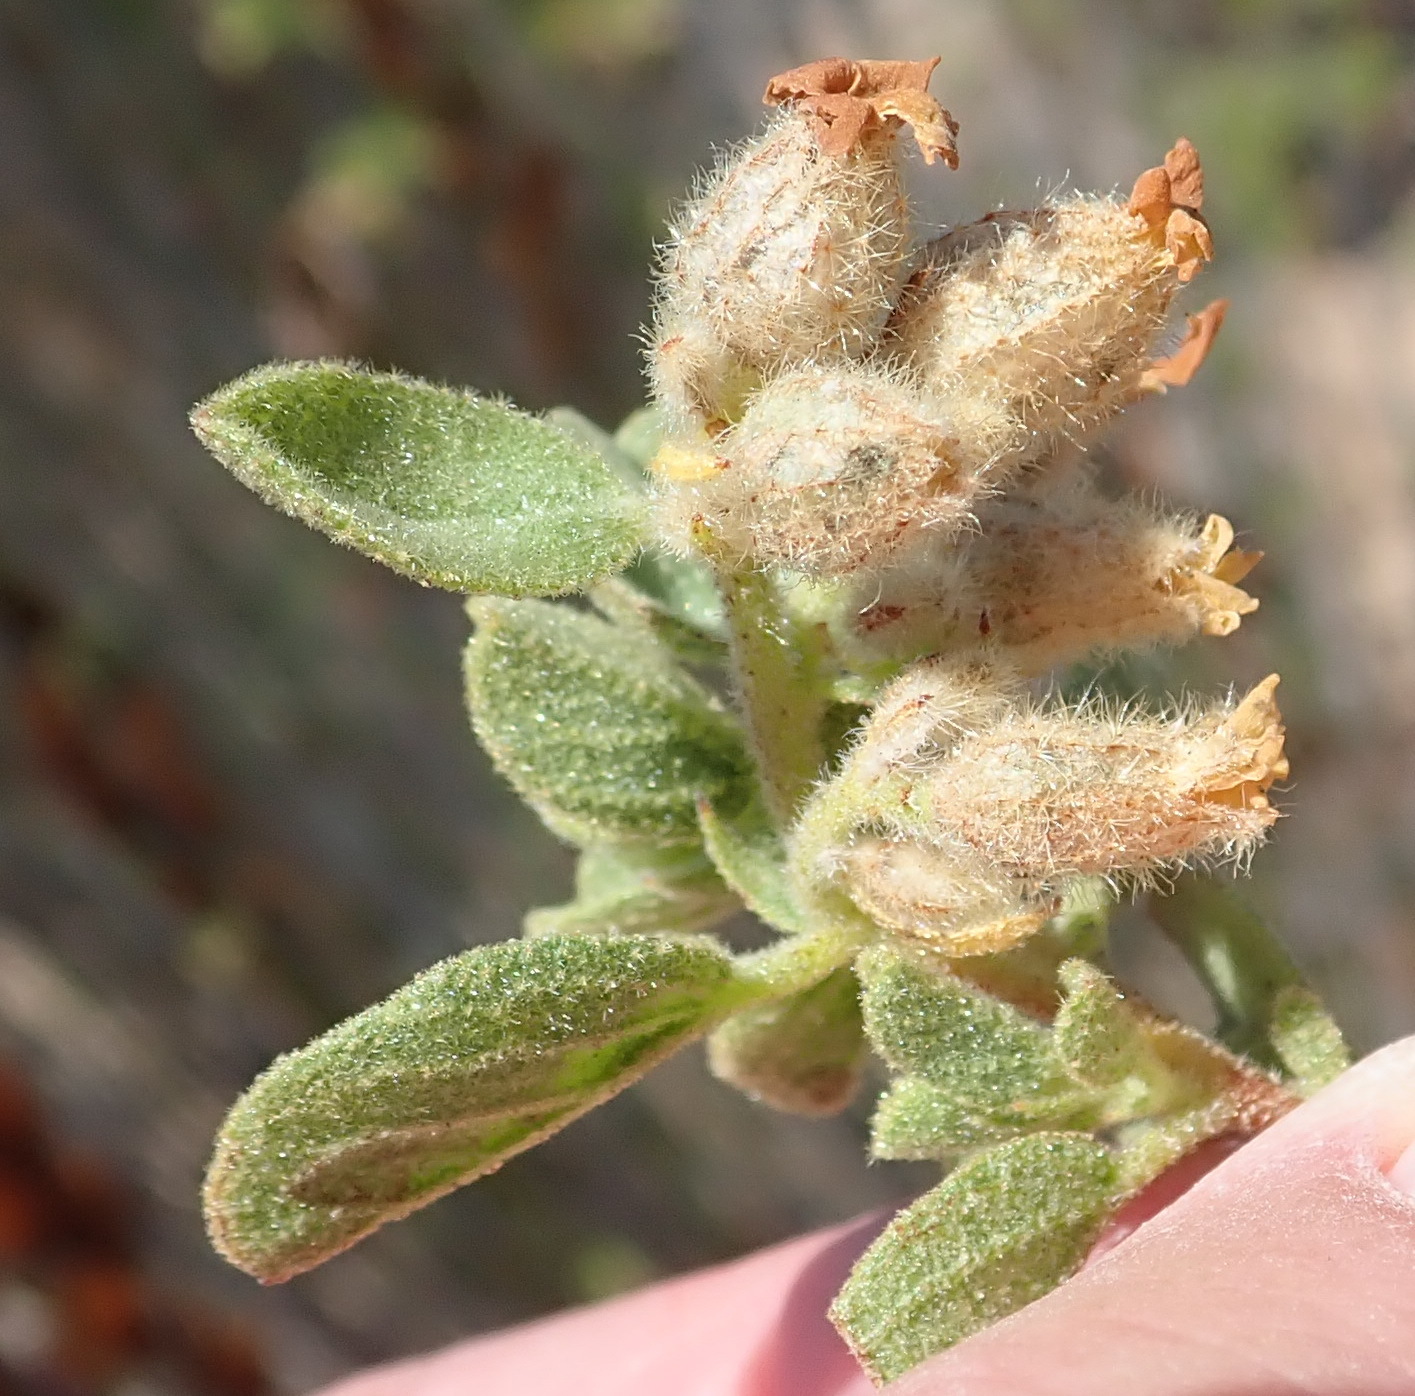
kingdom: Plantae
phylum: Tracheophyta
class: Magnoliopsida
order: Malvales
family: Malvaceae
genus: Hermannia
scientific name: Hermannia salviifolia
